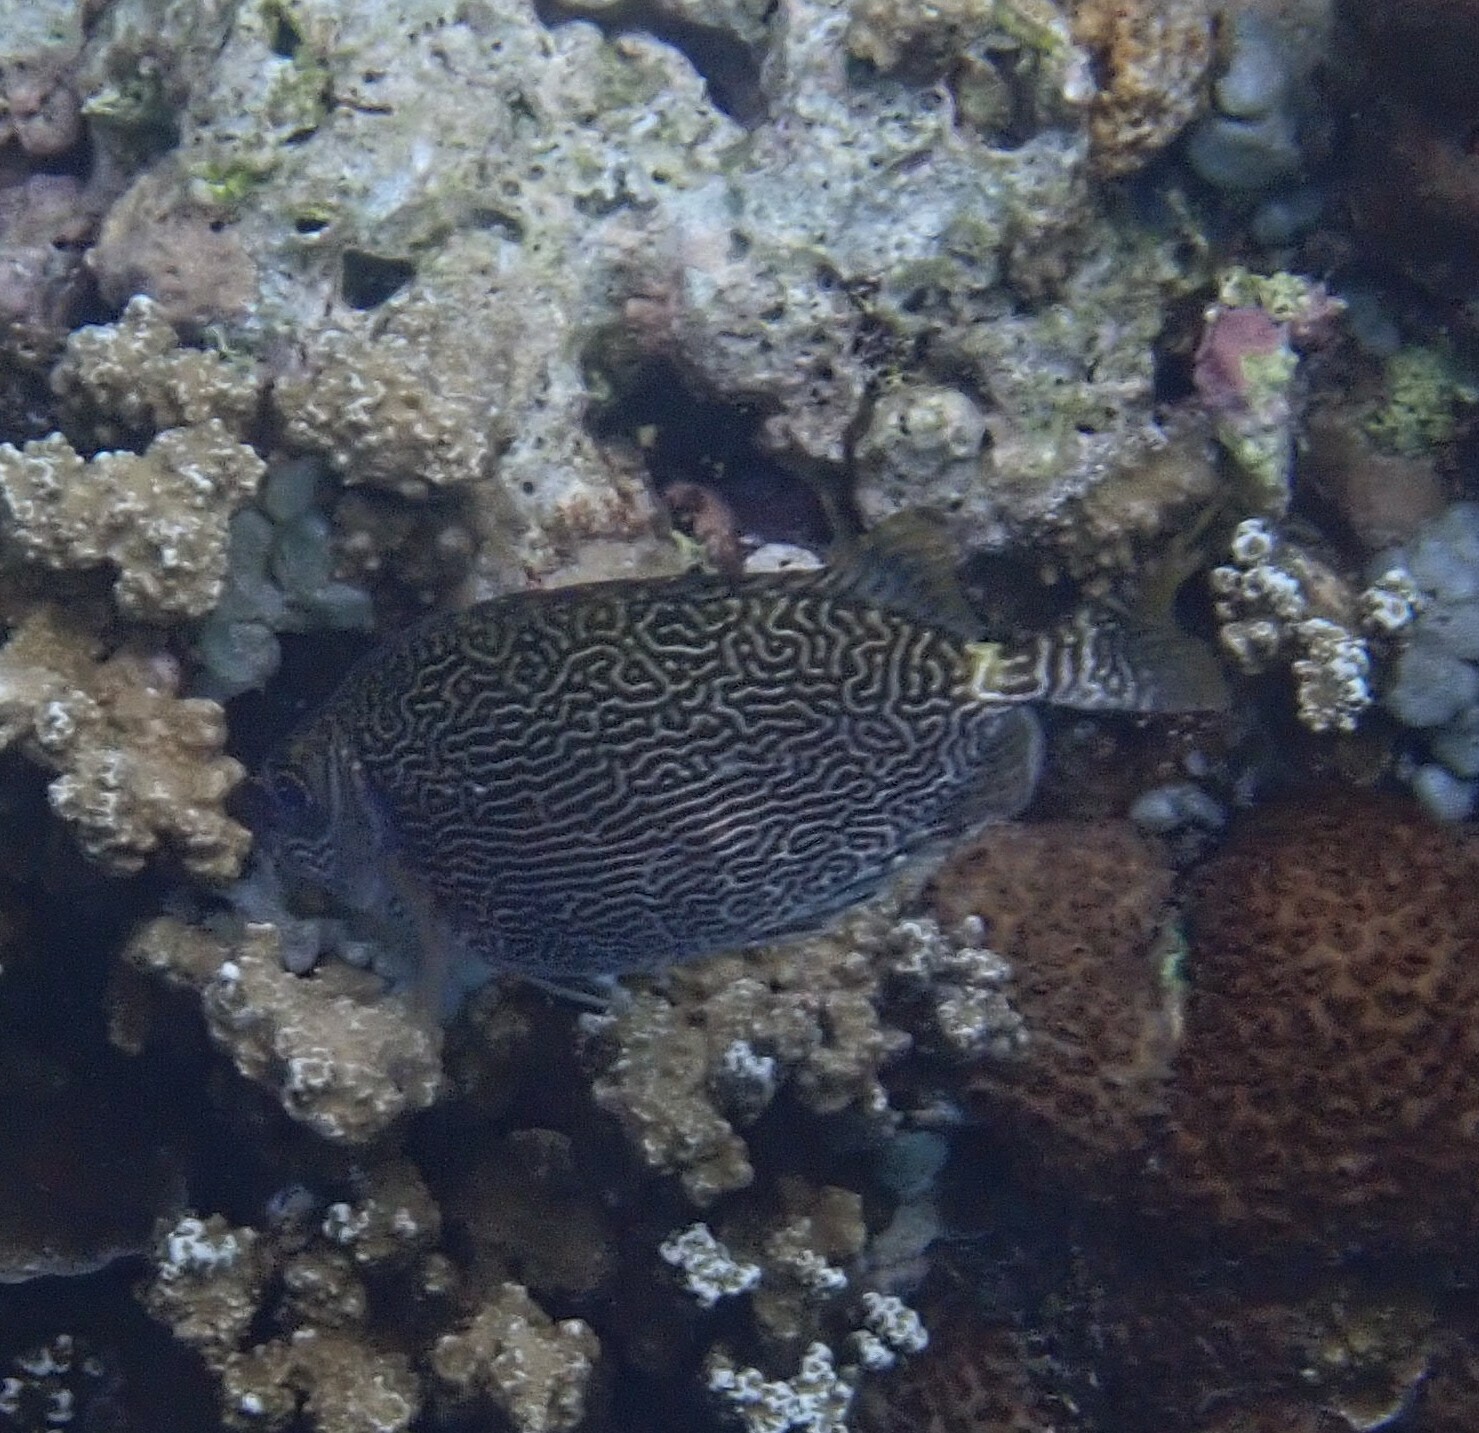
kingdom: Animalia
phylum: Chordata
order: Perciformes
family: Siganidae
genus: Siganus
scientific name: Siganus spinus
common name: Scribbled rabbitfish
